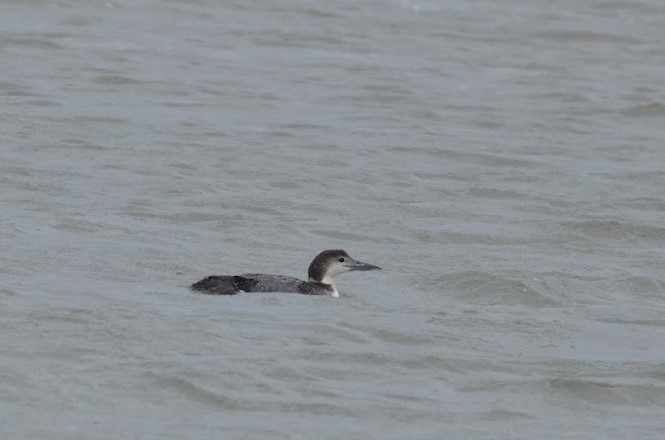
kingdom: Animalia
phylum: Chordata
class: Aves
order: Gaviiformes
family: Gaviidae
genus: Gavia
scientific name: Gavia immer
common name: Common loon
